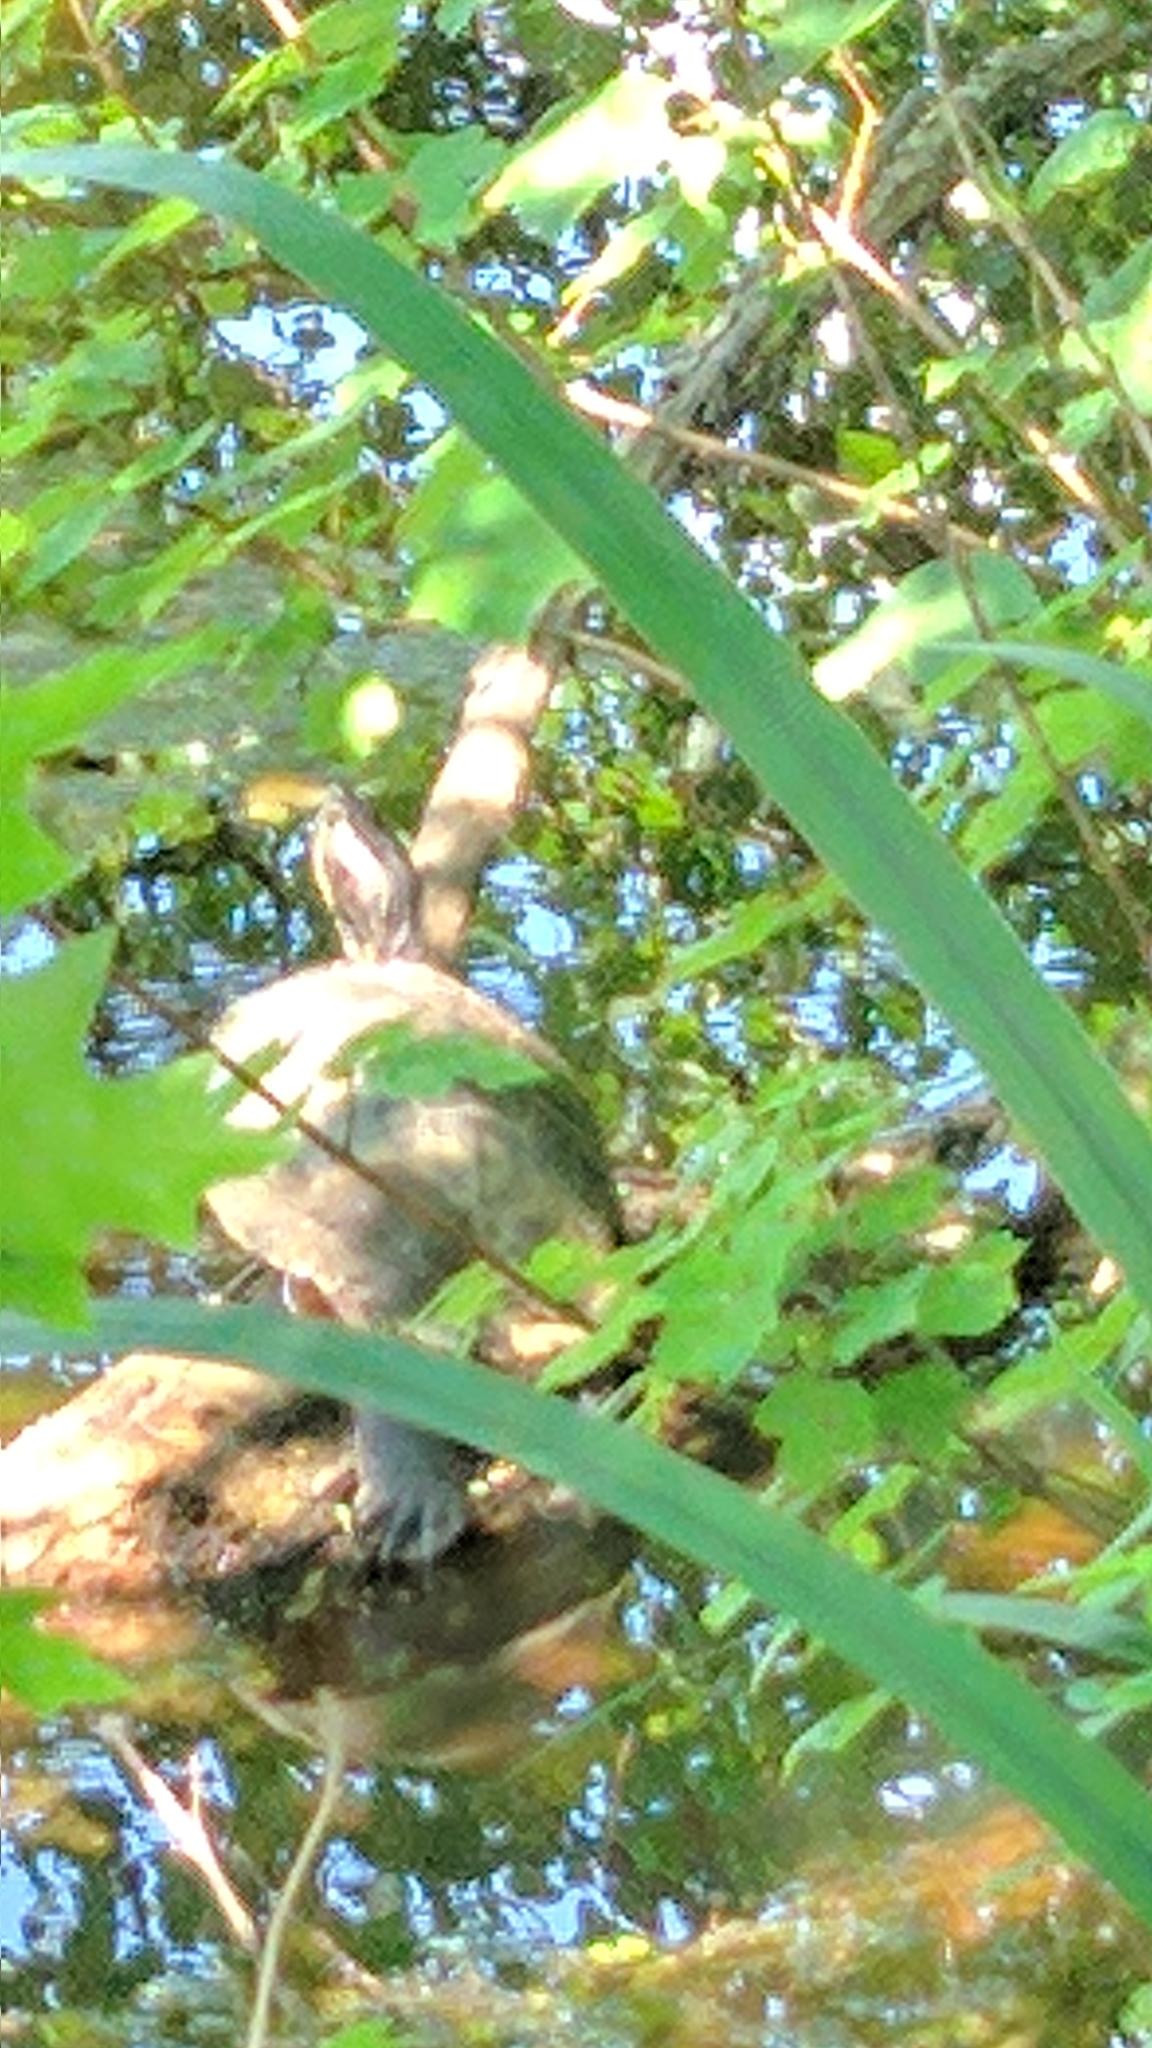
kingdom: Animalia
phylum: Chordata
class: Testudines
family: Emydidae
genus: Trachemys
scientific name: Trachemys scripta
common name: Slider
